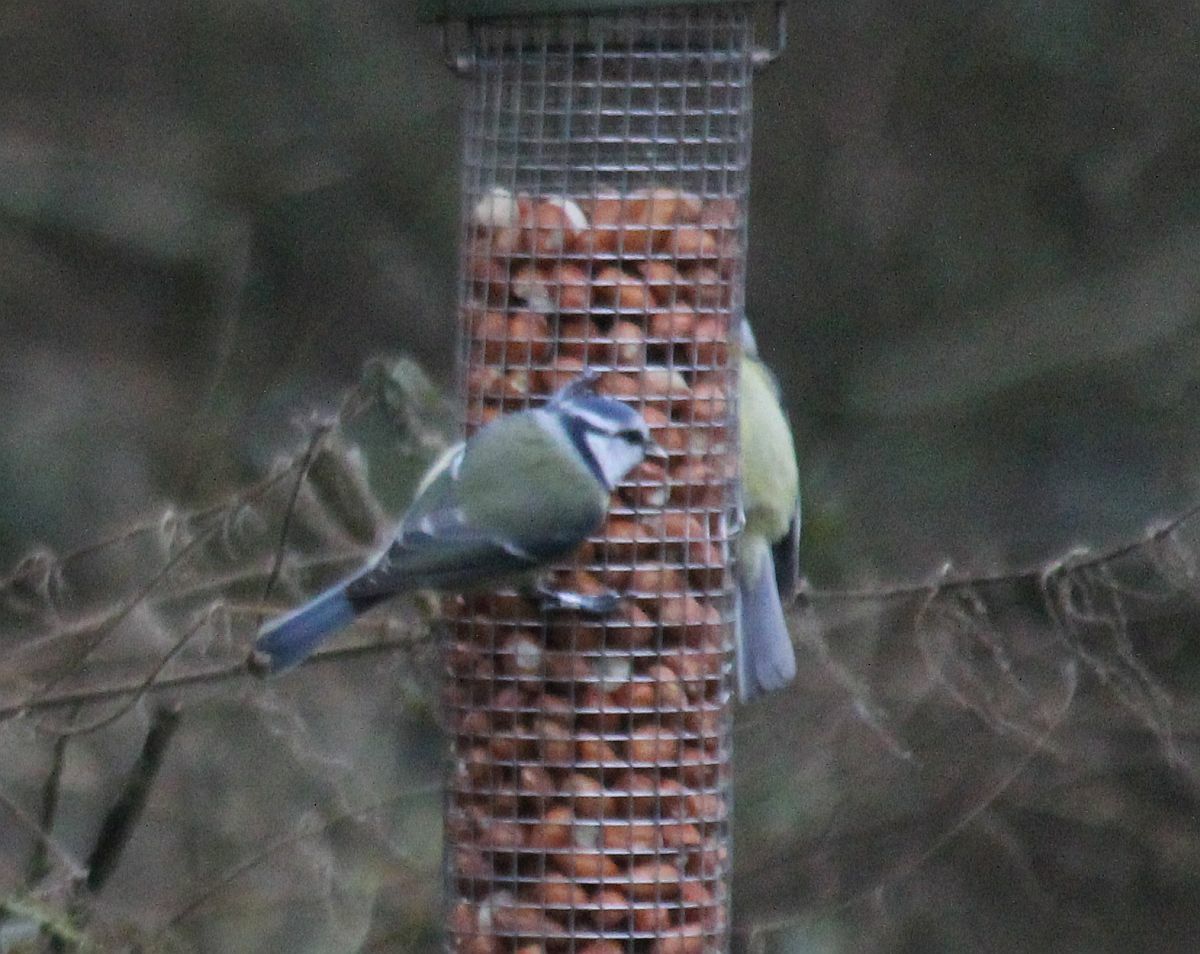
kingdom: Animalia
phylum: Chordata
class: Aves
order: Passeriformes
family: Paridae
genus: Cyanistes
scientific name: Cyanistes caeruleus
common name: Eurasian blue tit
